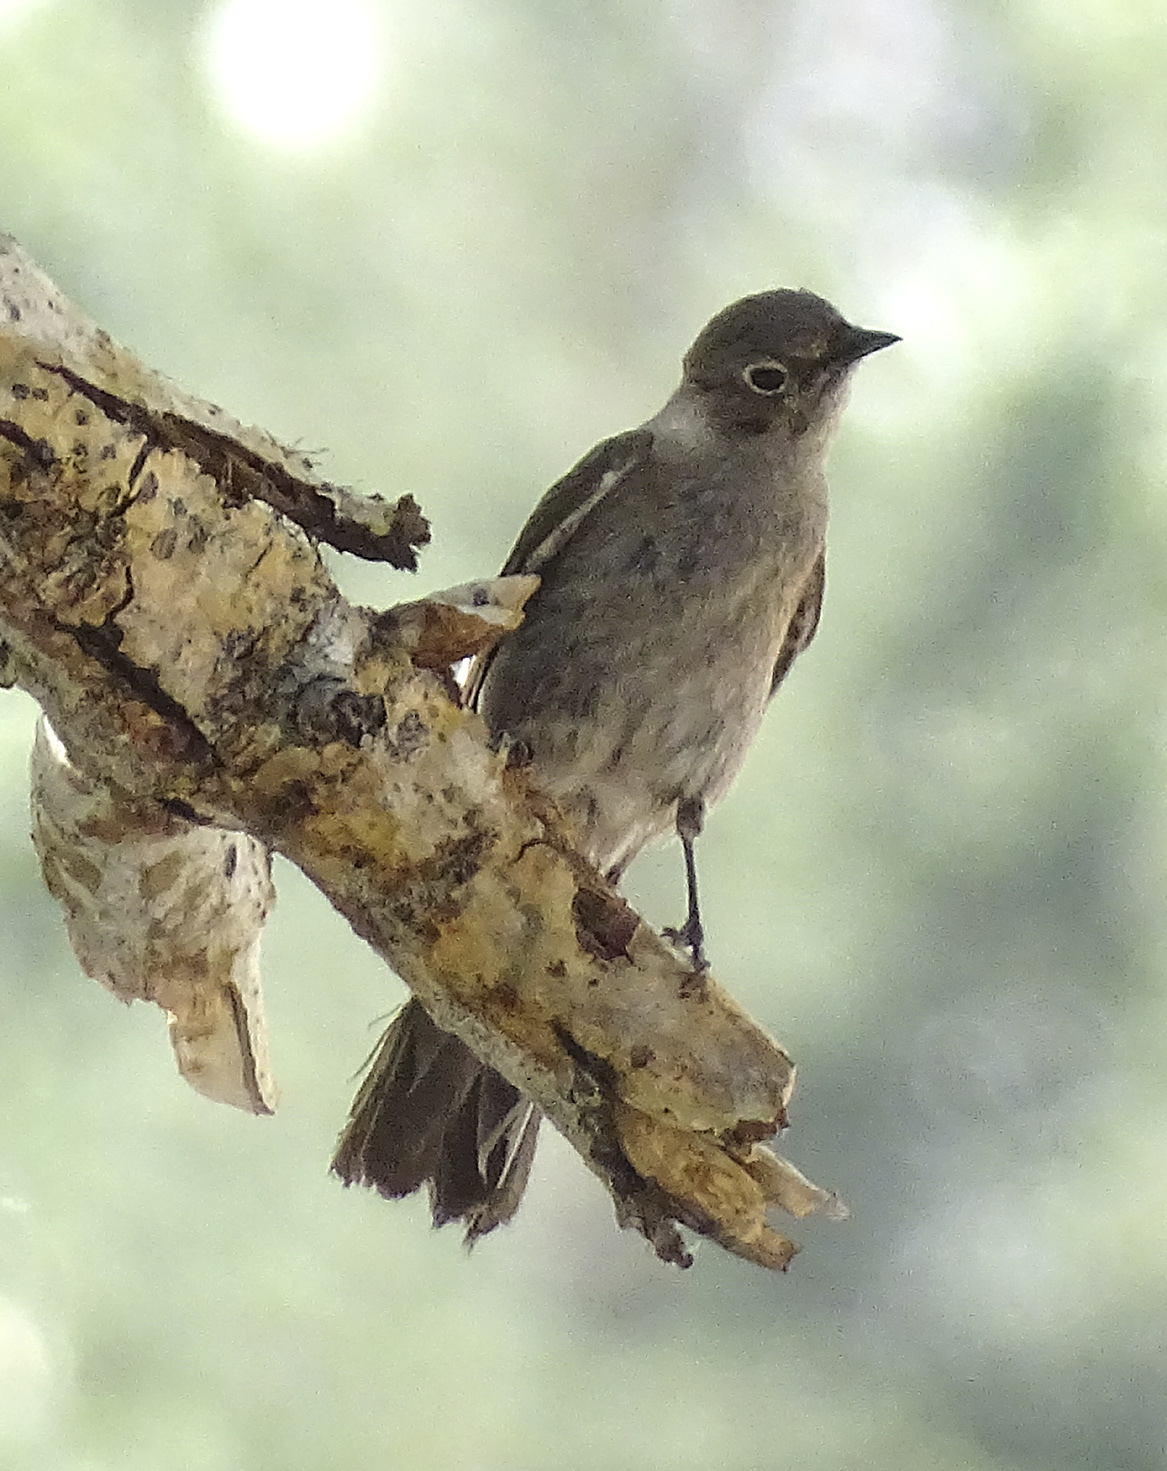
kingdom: Animalia
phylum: Chordata
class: Aves
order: Passeriformes
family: Turdidae
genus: Myadestes
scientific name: Myadestes townsendi
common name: Townsend's solitaire
